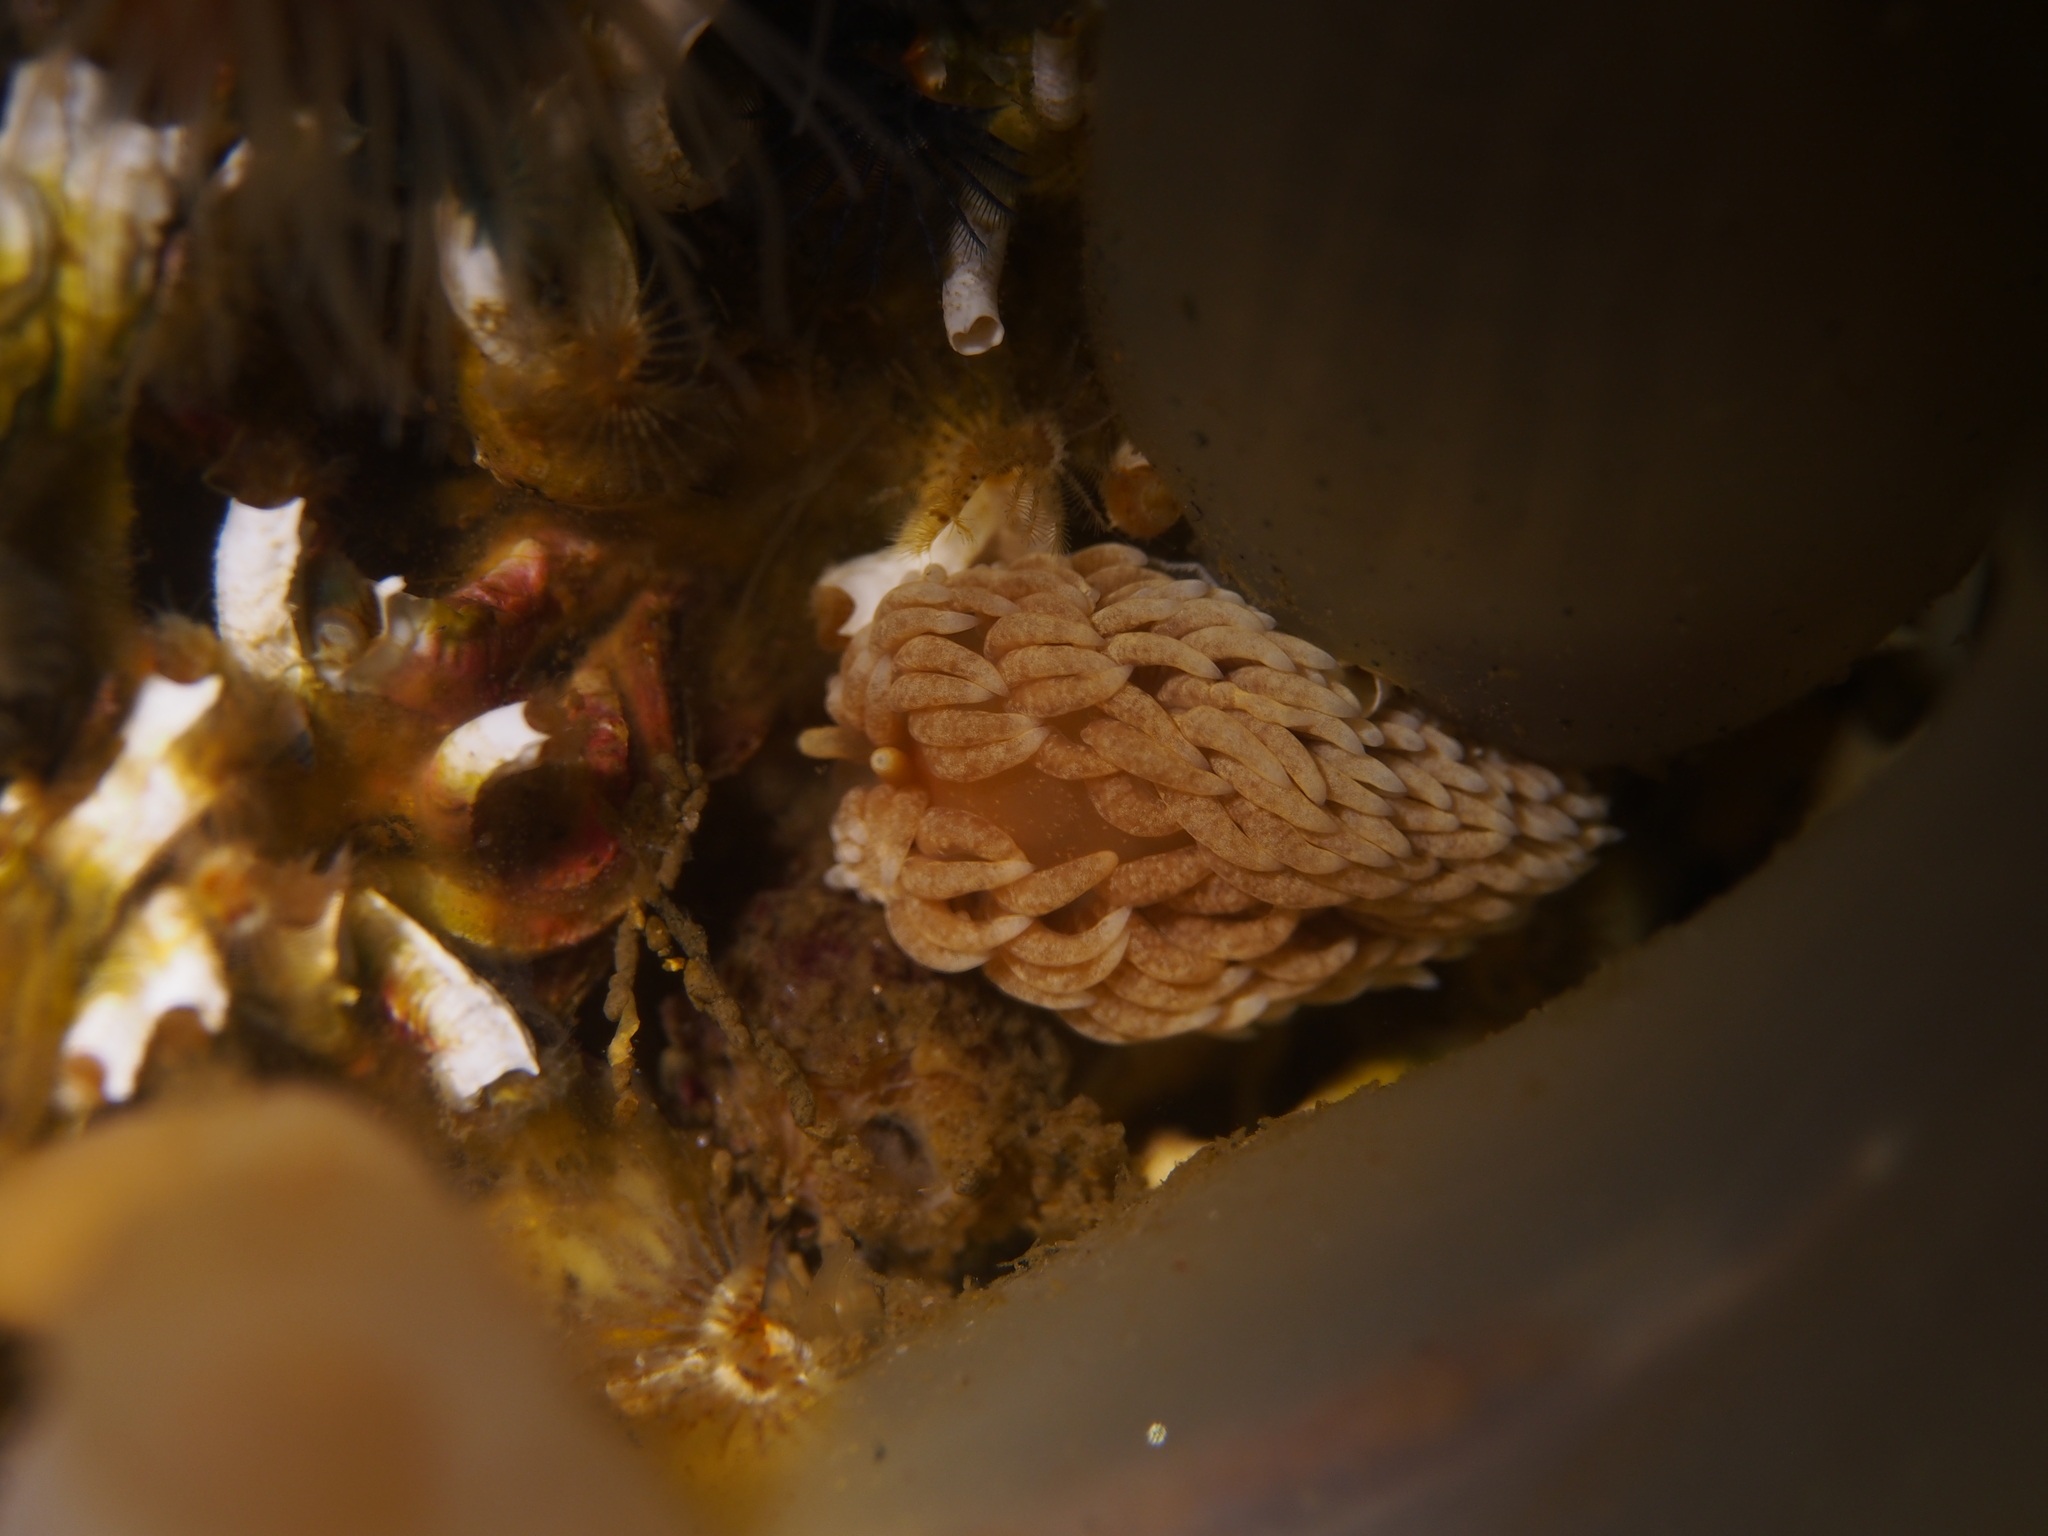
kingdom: Animalia
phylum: Mollusca
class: Gastropoda
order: Nudibranchia
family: Aeolidiidae
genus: Aeolidiella
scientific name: Aeolidiella glauca
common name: Orange-brown aeolid
